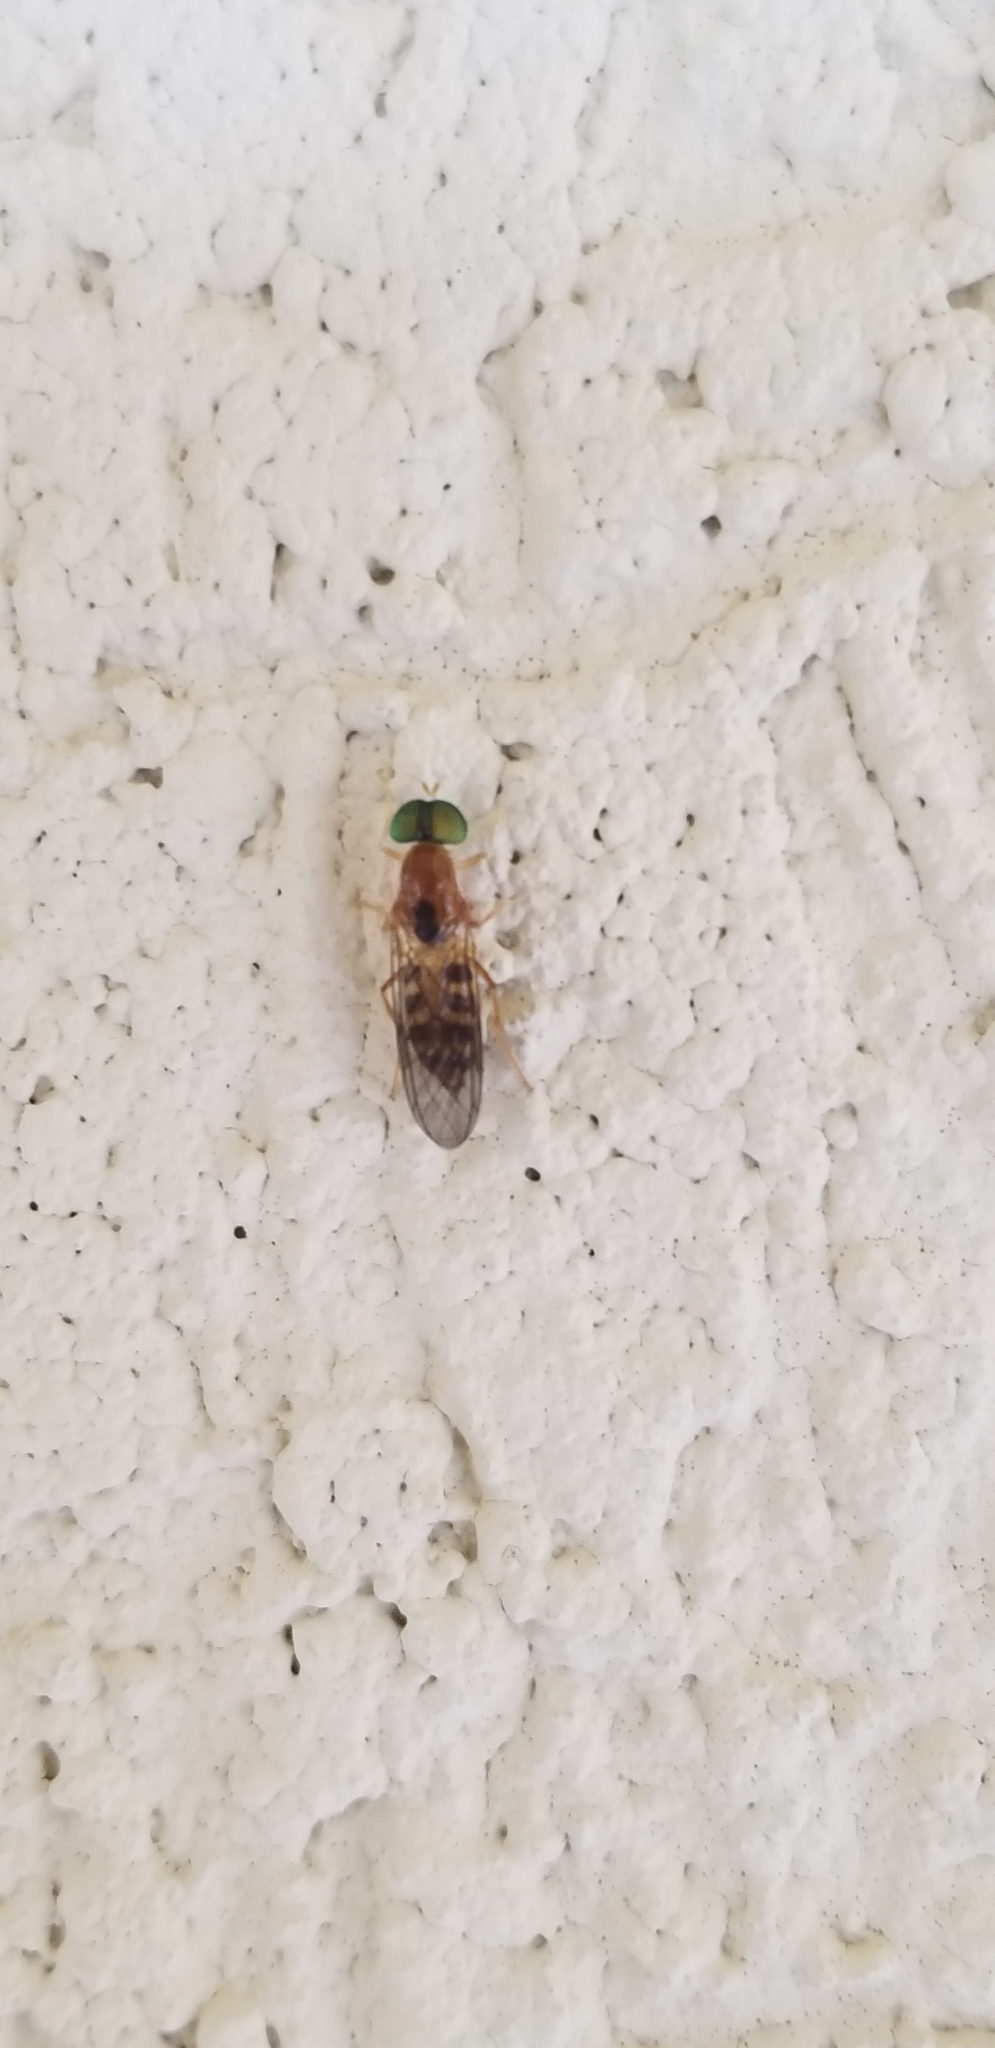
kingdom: Animalia
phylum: Arthropoda
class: Insecta
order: Diptera
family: Stratiomyidae
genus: Sargus
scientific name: Sargus elegans
